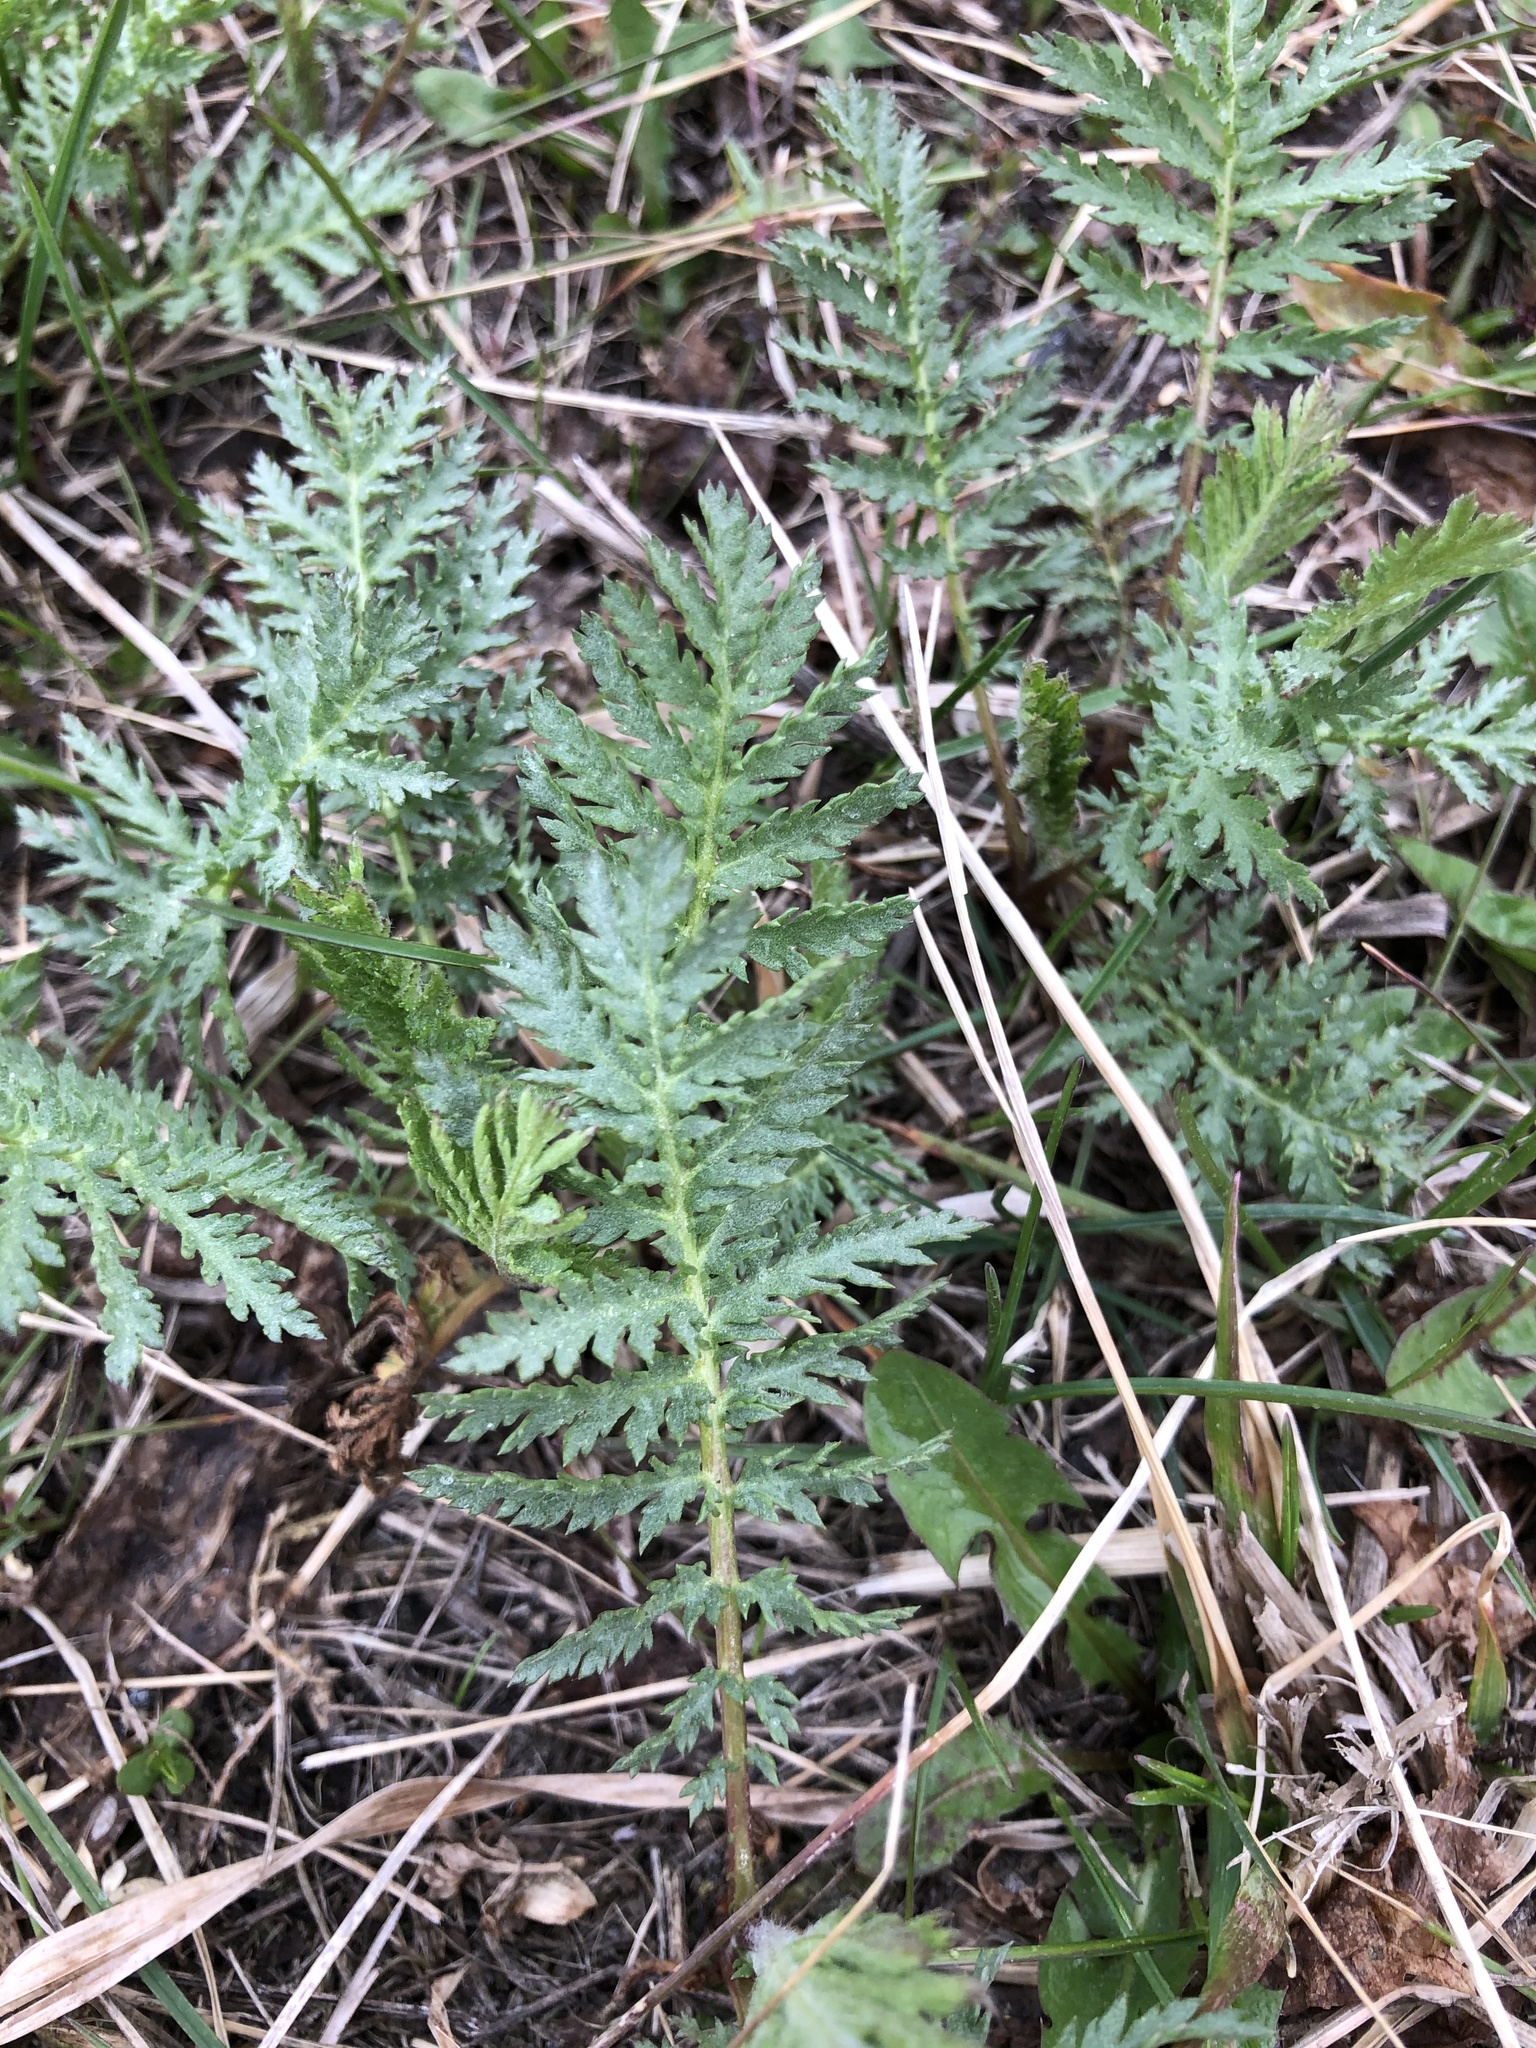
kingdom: Plantae
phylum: Tracheophyta
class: Magnoliopsida
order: Asterales
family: Asteraceae
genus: Tanacetum
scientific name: Tanacetum vulgare
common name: Common tansy
